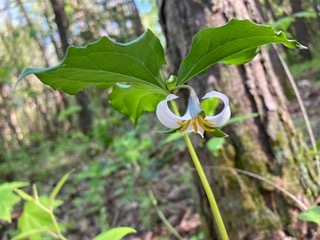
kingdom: Plantae
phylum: Tracheophyta
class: Liliopsida
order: Liliales
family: Melanthiaceae
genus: Trillium
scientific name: Trillium catesbaei
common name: Bashful trillium
